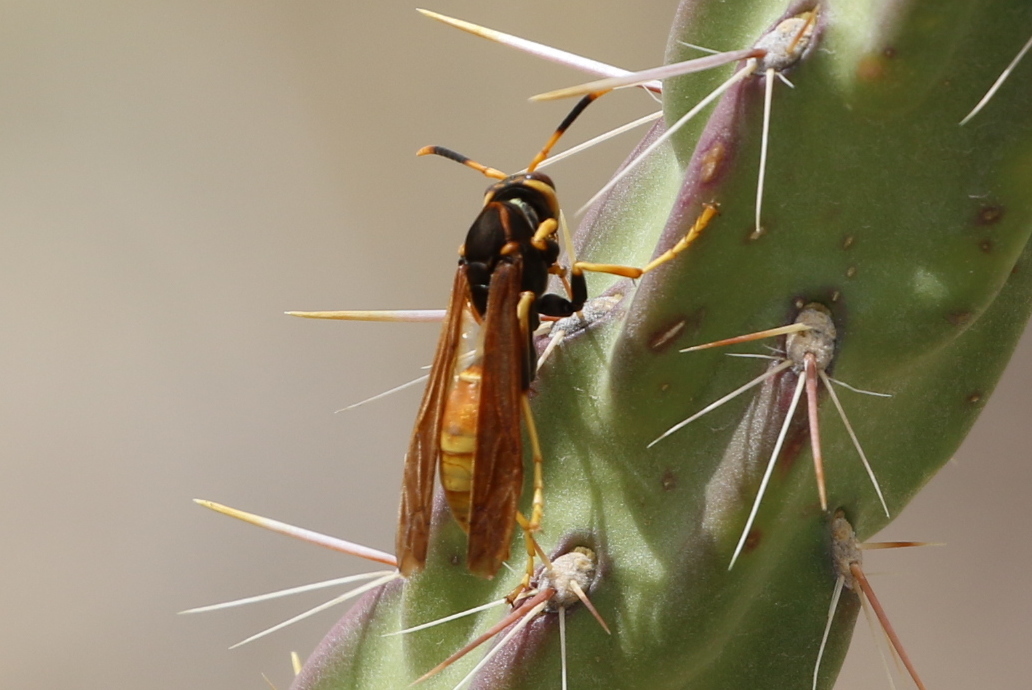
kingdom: Animalia
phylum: Arthropoda
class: Insecta
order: Hymenoptera
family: Eumenidae
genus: Polistes
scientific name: Polistes comanchus
